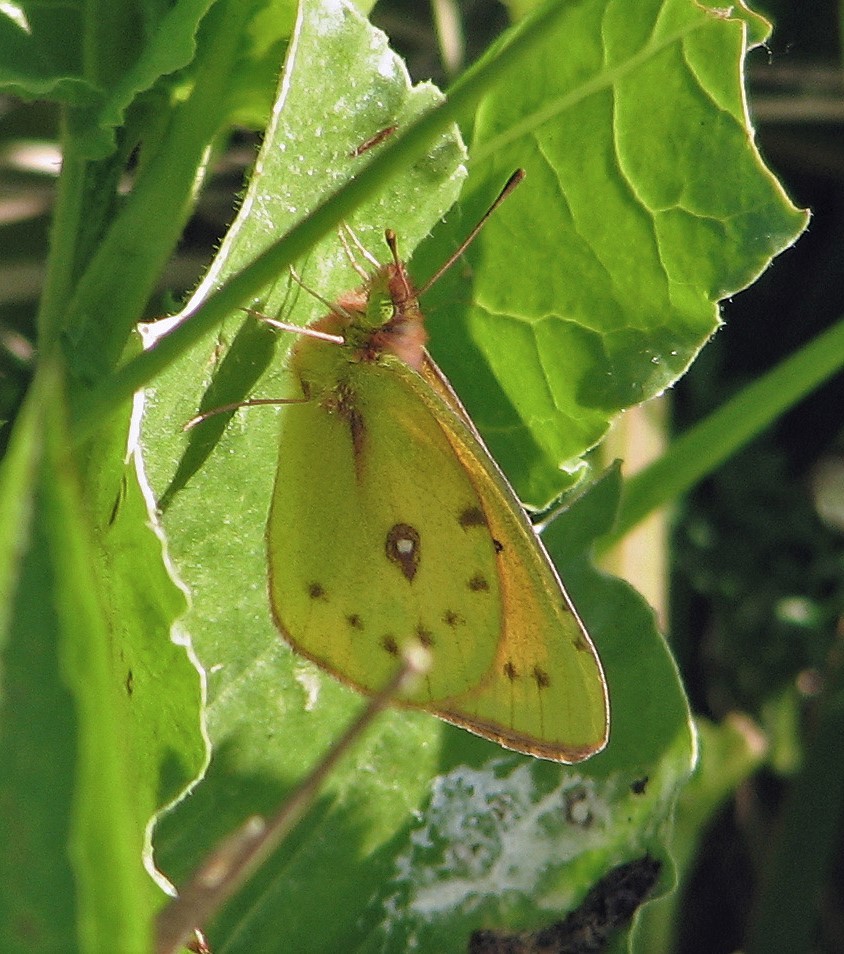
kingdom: Animalia
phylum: Arthropoda
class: Insecta
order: Lepidoptera
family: Pieridae
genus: Colias
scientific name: Colias lesbia
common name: Lesbia clouded yellow
